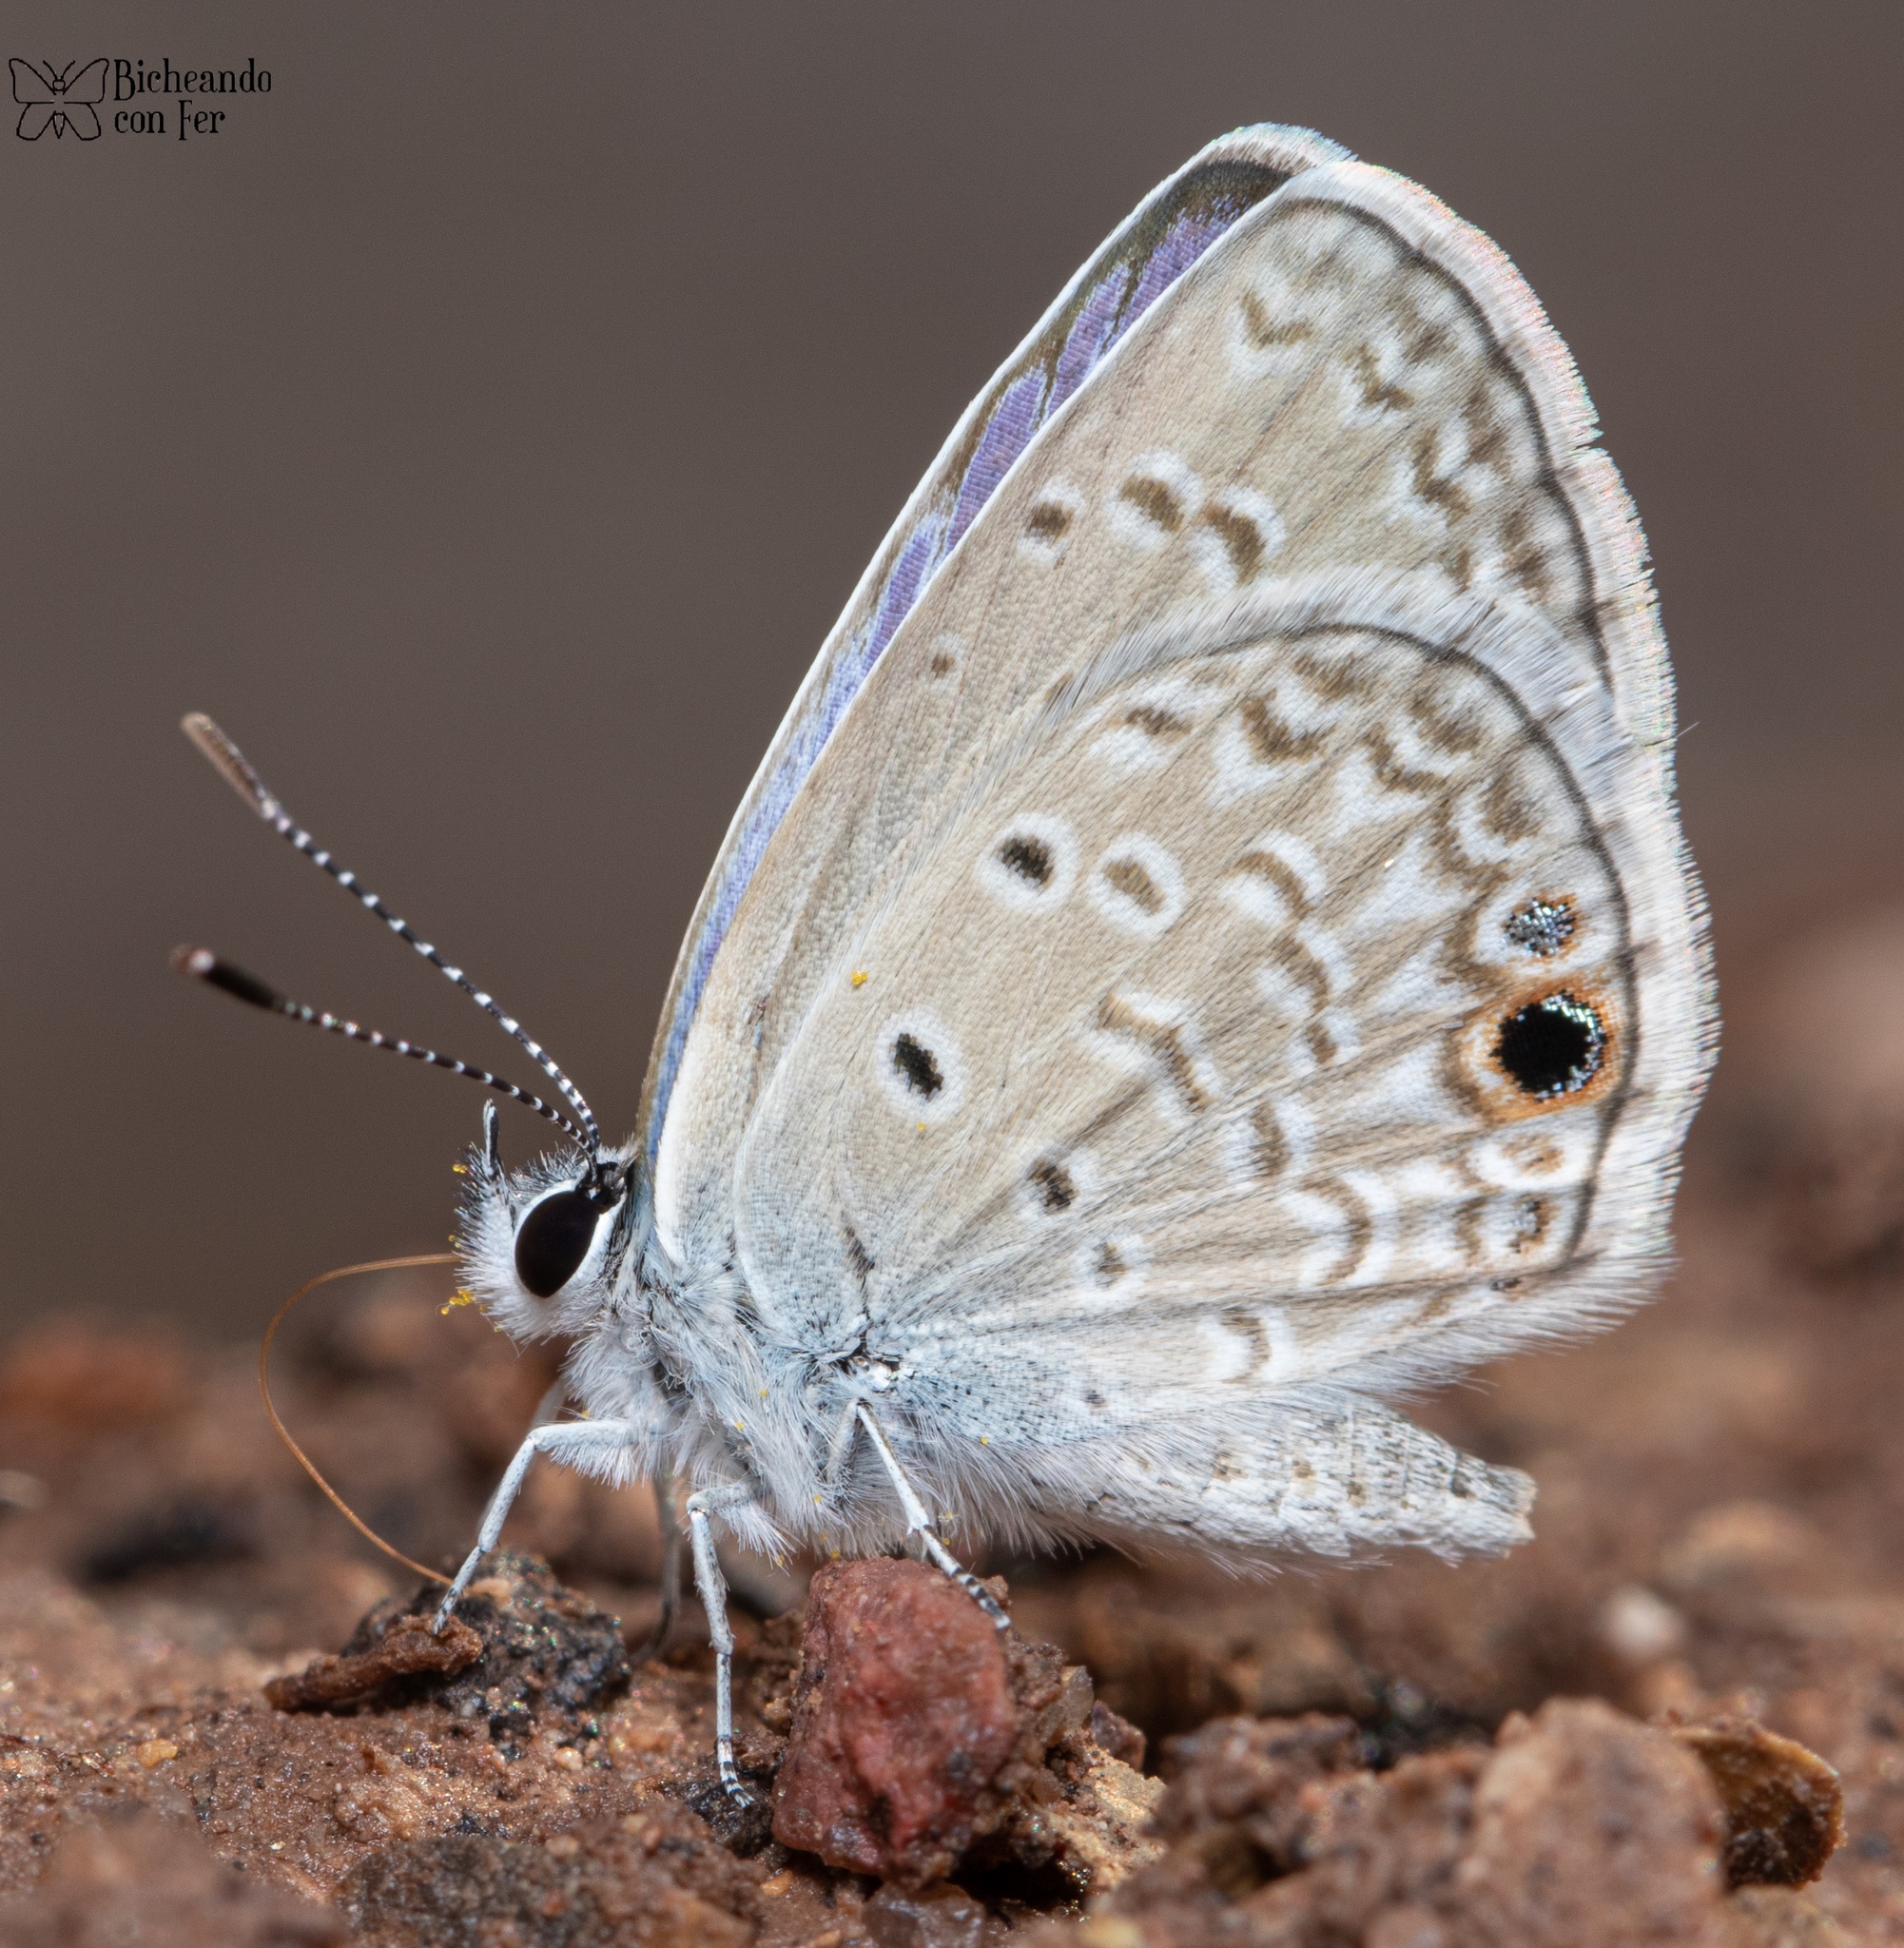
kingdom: Animalia
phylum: Arthropoda
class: Insecta
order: Lepidoptera
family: Lycaenidae
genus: Echinargus
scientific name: Echinargus isola
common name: Reakirt's blue
